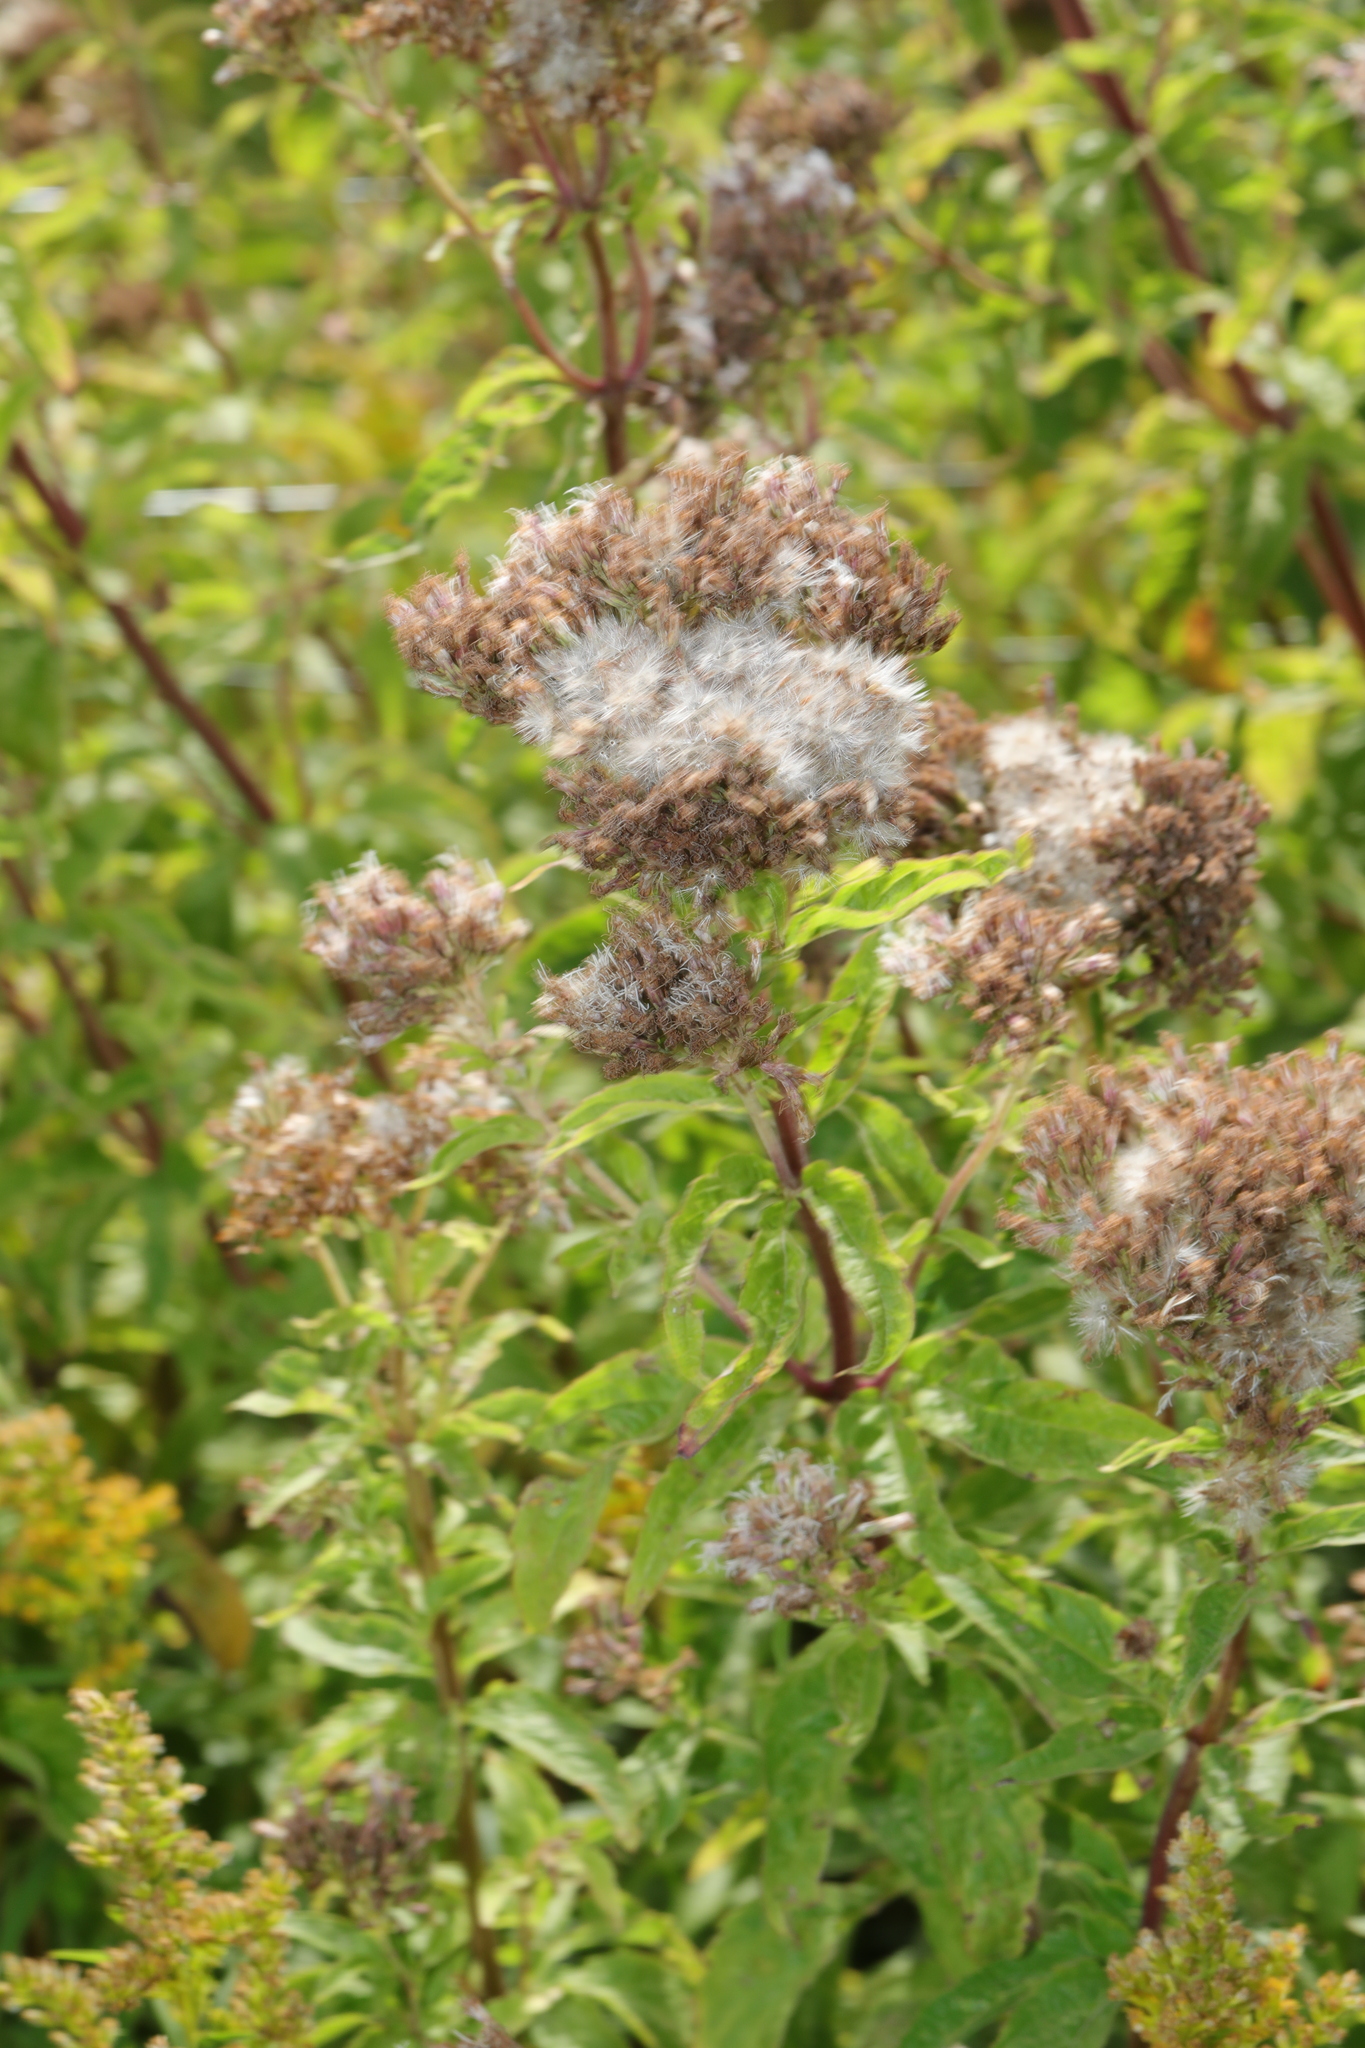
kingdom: Plantae
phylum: Tracheophyta
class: Magnoliopsida
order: Asterales
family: Asteraceae
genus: Eupatorium
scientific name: Eupatorium cannabinum
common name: Hemp-agrimony
